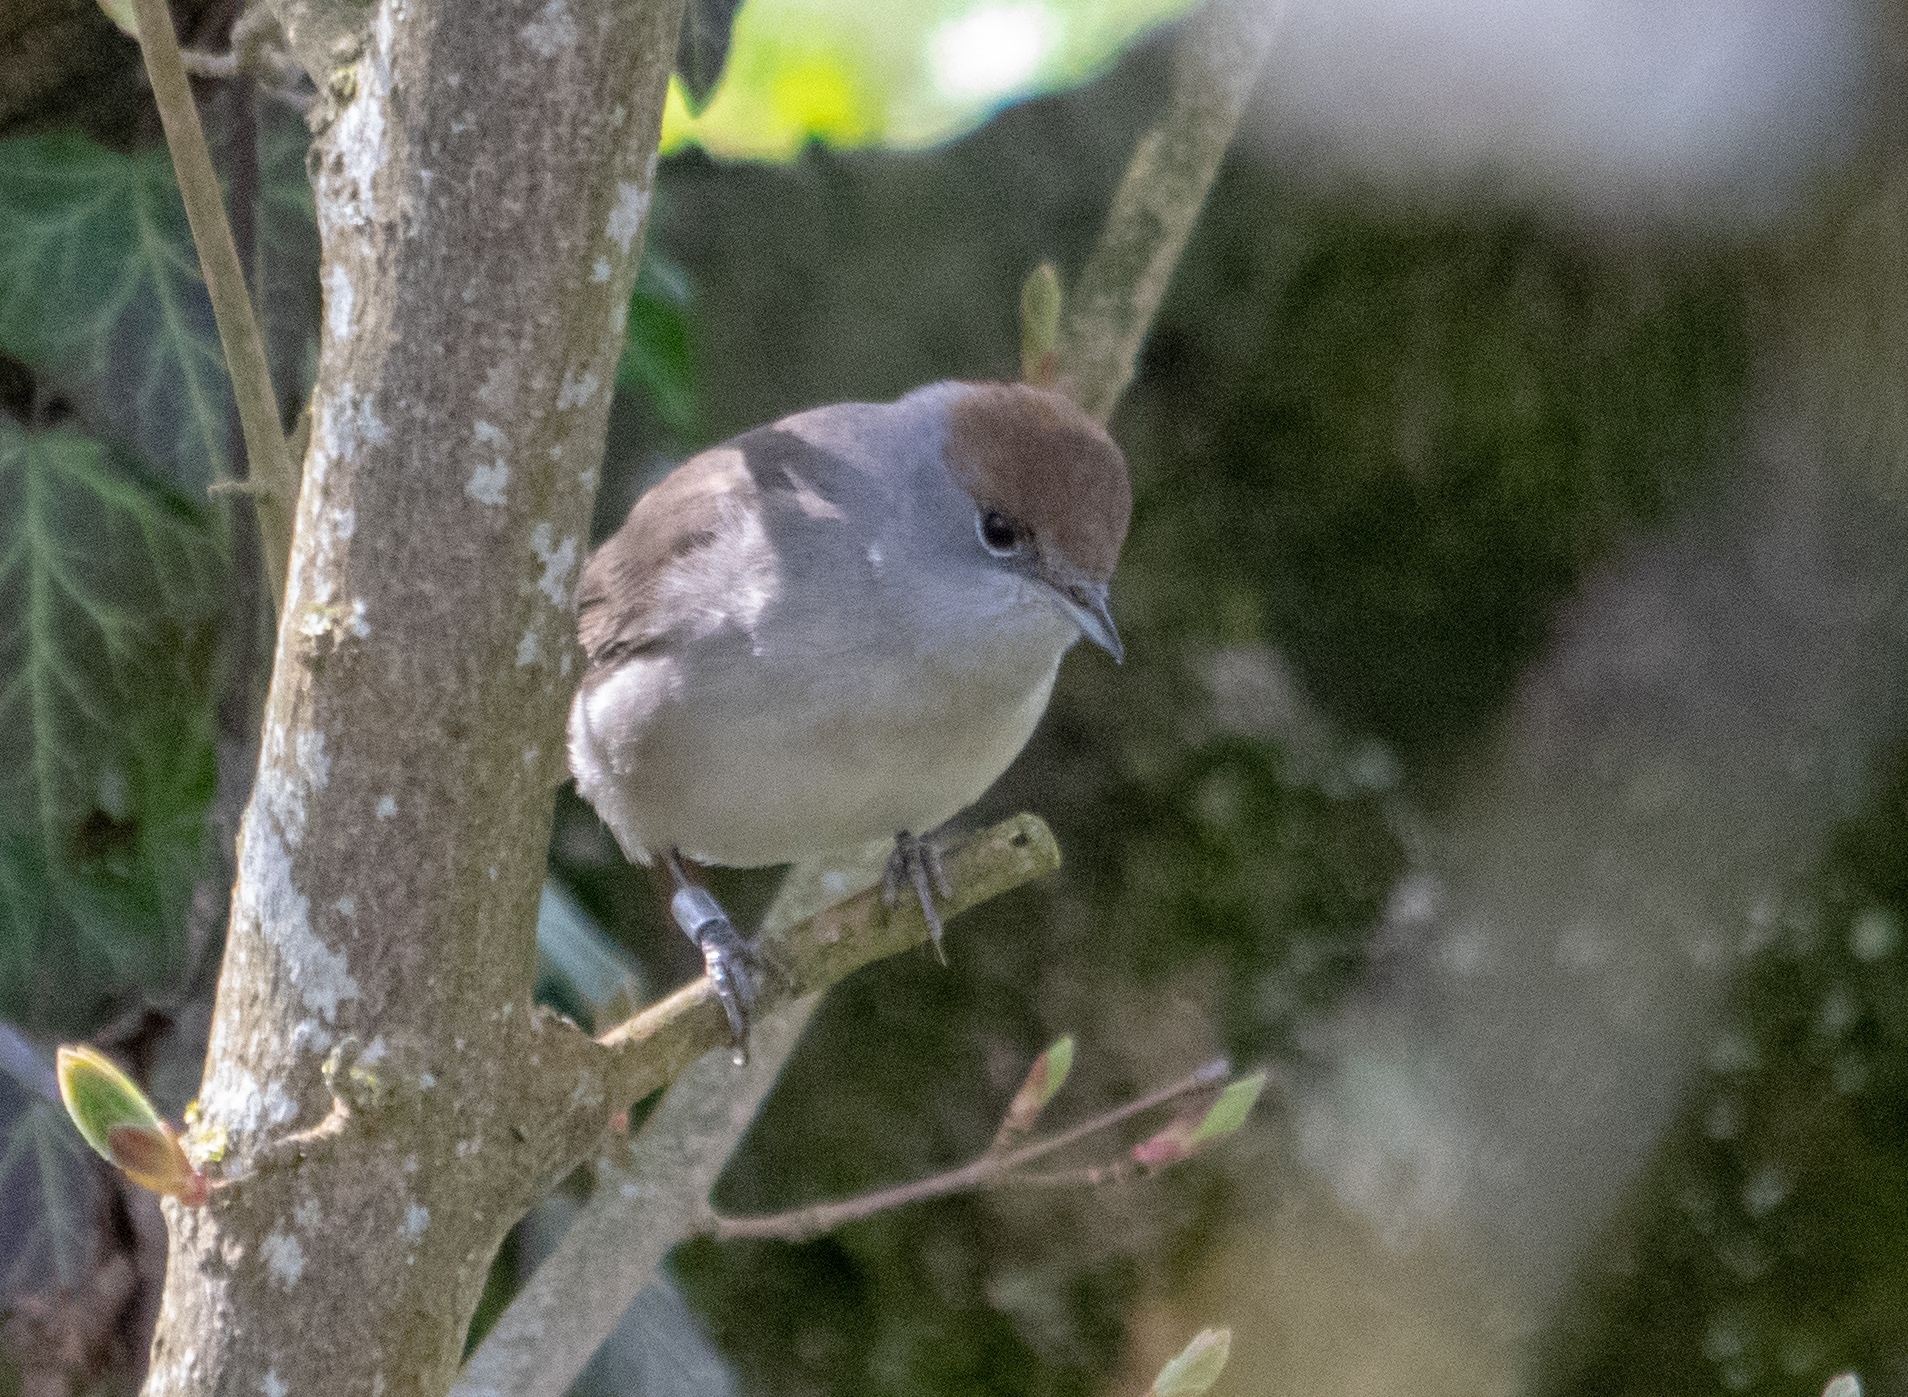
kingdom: Animalia
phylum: Chordata
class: Aves
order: Passeriformes
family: Sylviidae
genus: Sylvia
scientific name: Sylvia atricapilla
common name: Eurasian blackcap
